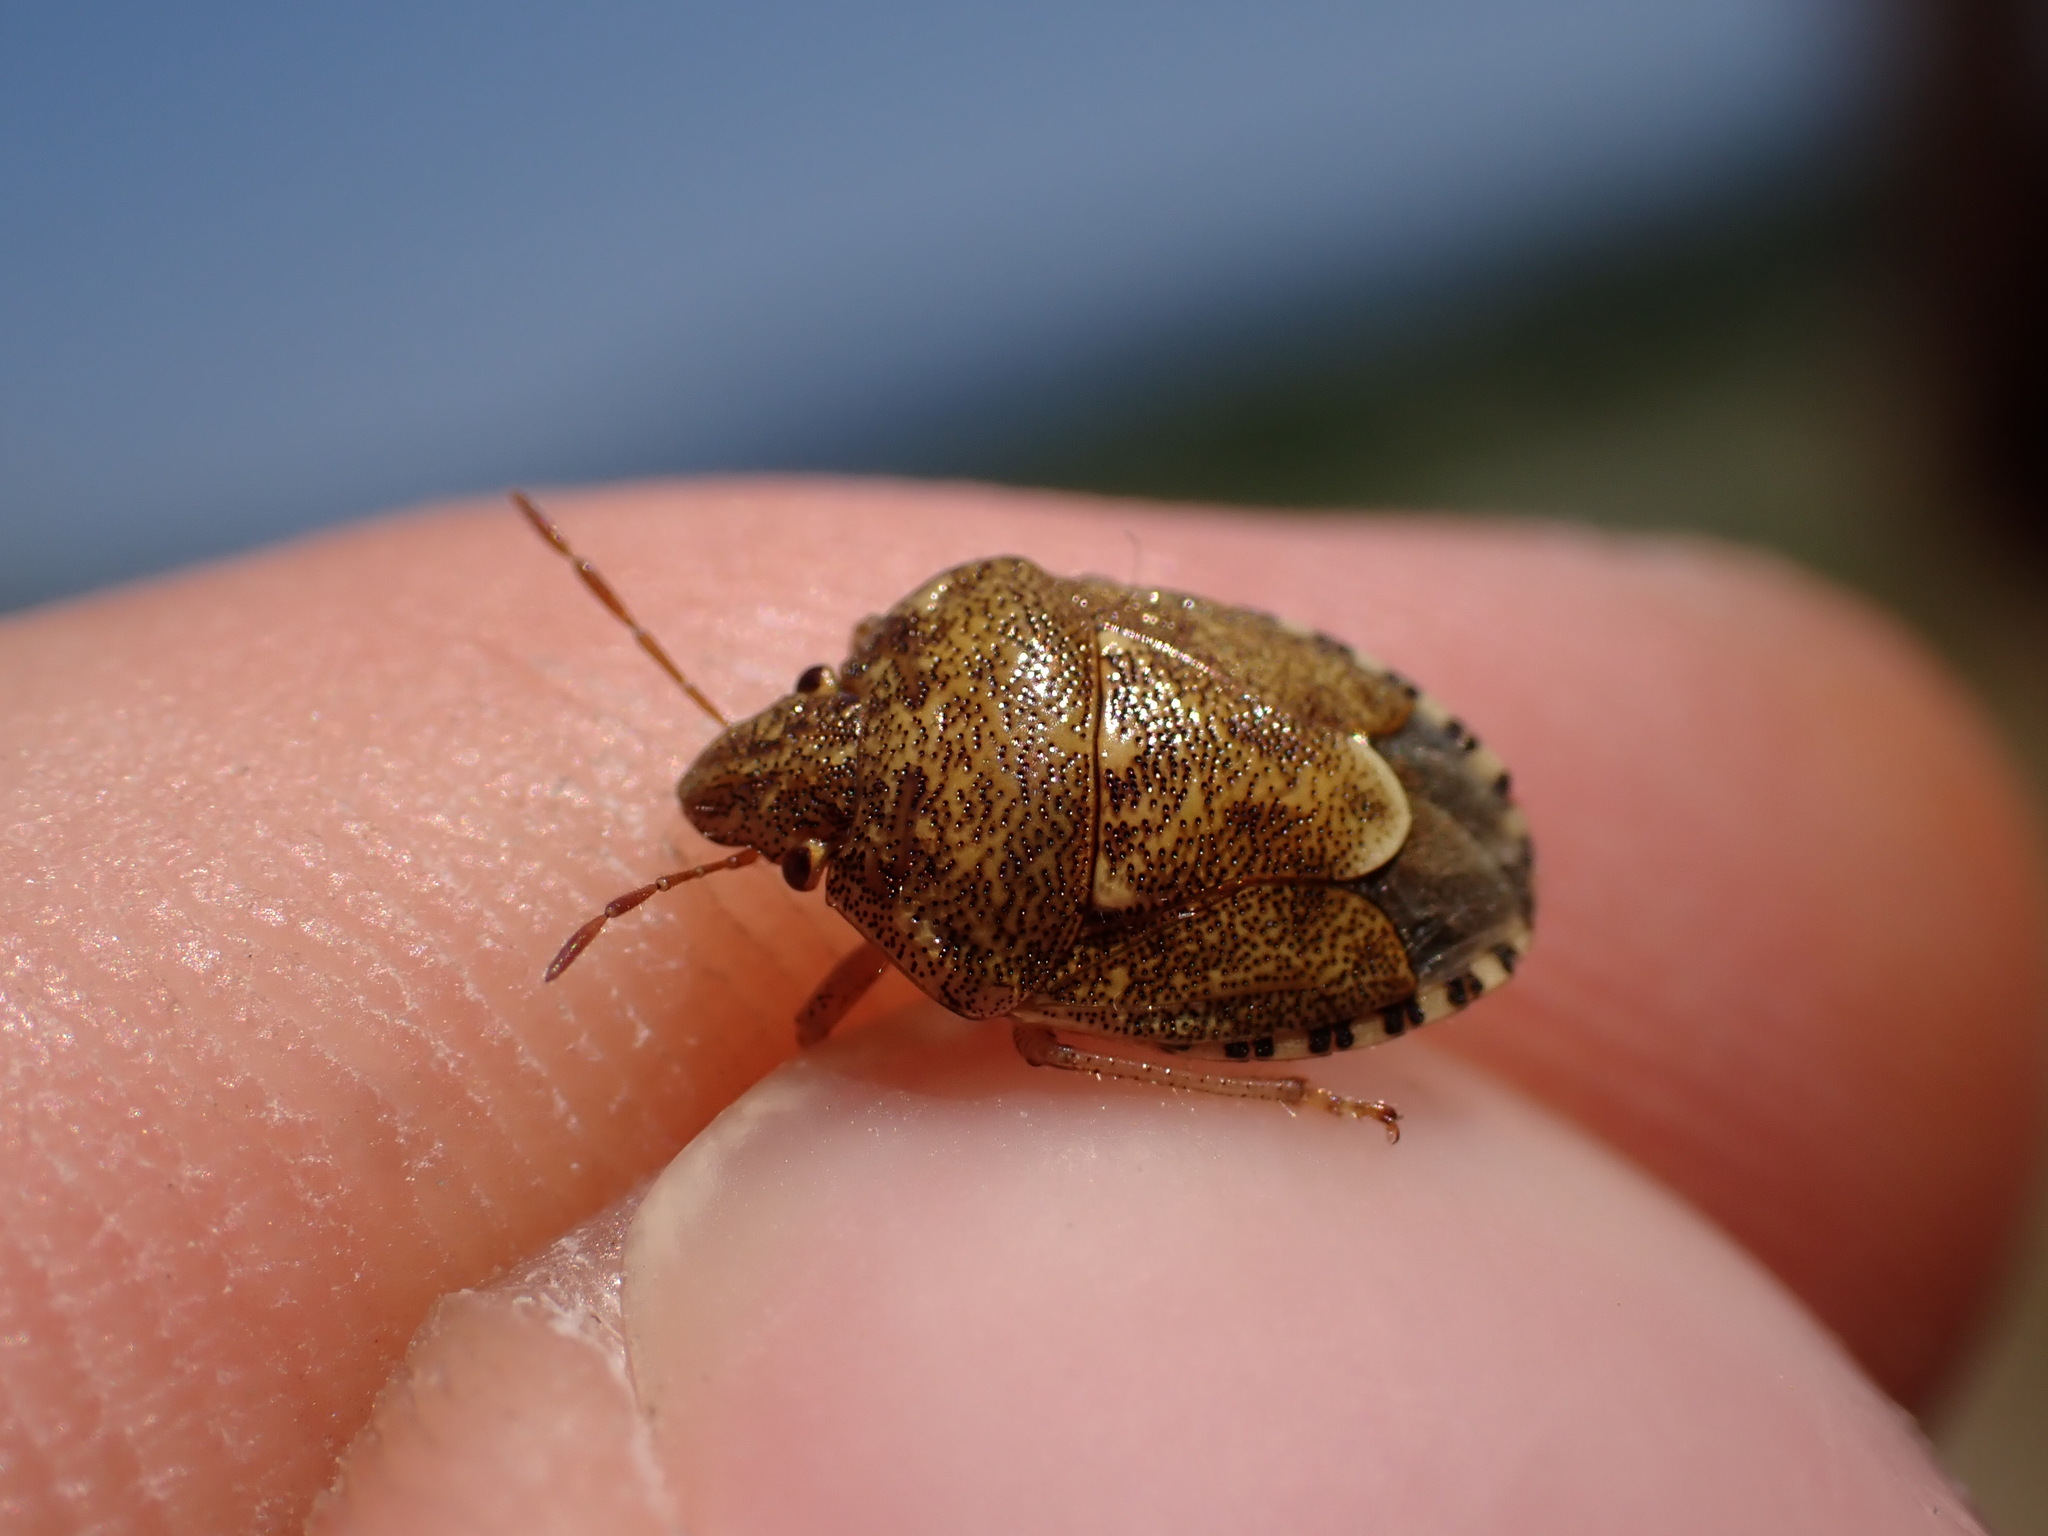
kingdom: Animalia
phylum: Arthropoda
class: Insecta
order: Hemiptera
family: Pentatomidae
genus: Staria
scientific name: Staria lunata
